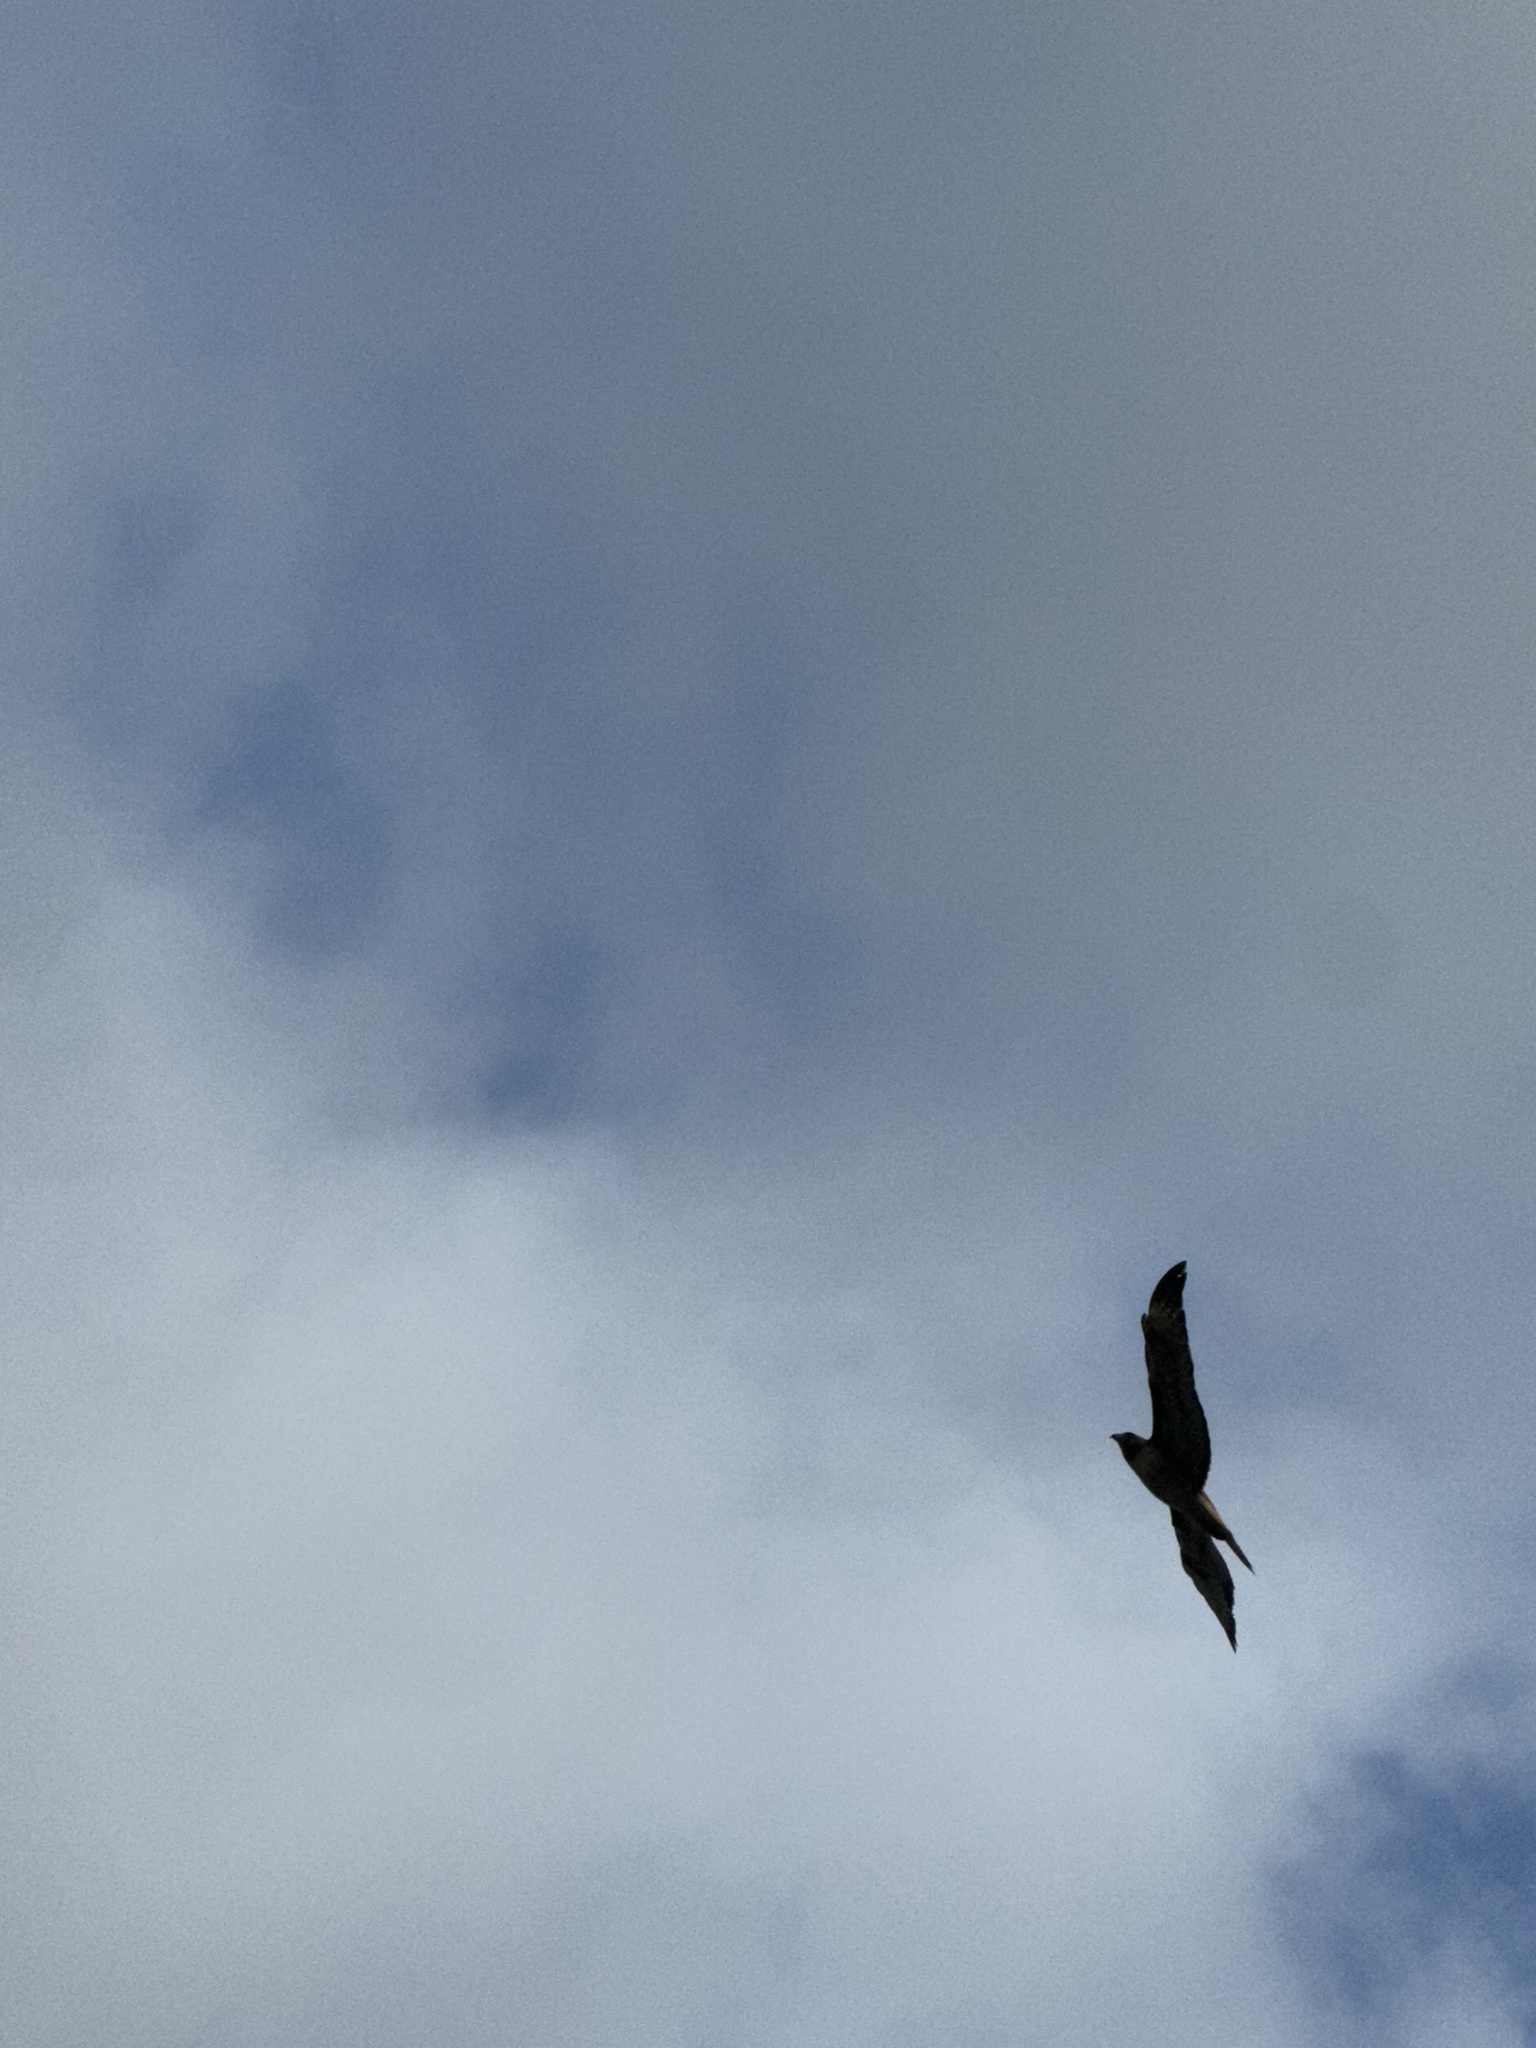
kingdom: Animalia
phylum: Chordata
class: Aves
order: Accipitriformes
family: Accipitridae
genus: Buteo
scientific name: Buteo jamaicensis
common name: Red-tailed hawk
